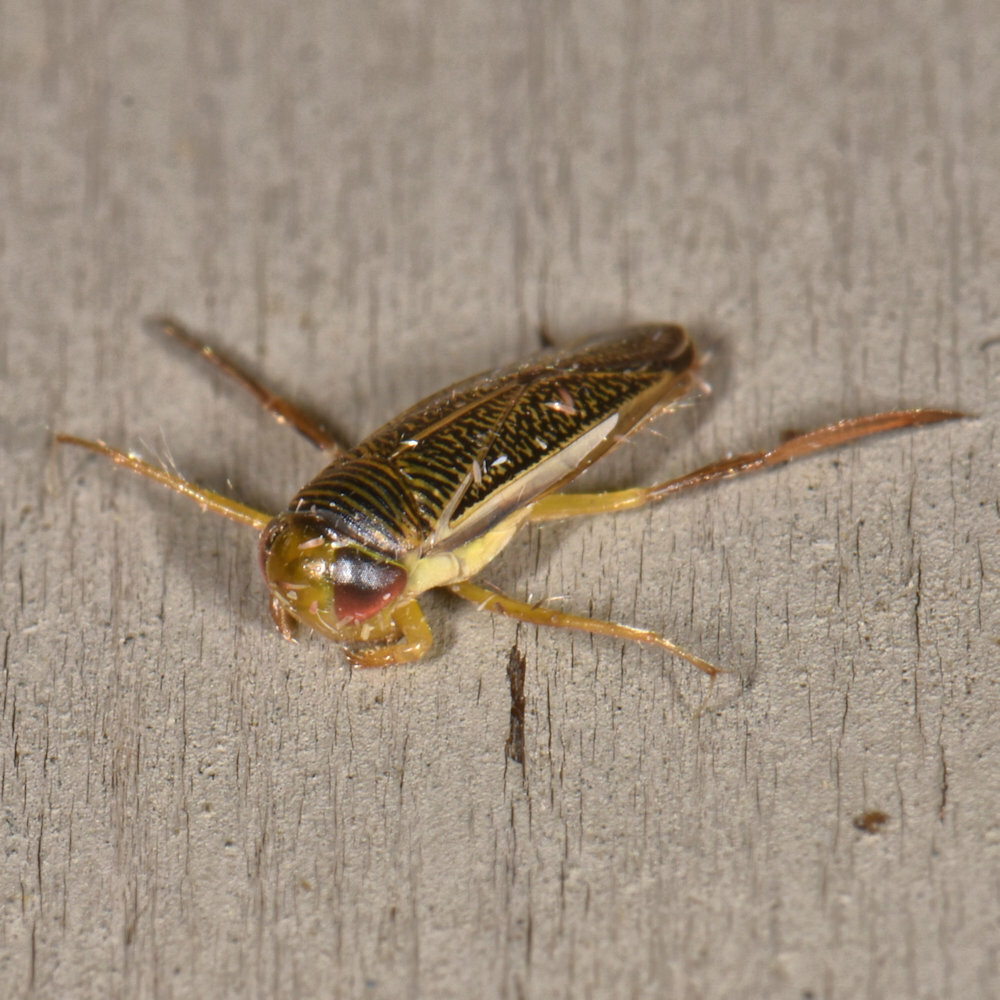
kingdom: Animalia
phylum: Arthropoda
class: Insecta
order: Hemiptera
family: Corixidae
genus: Sigara
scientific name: Sigara
